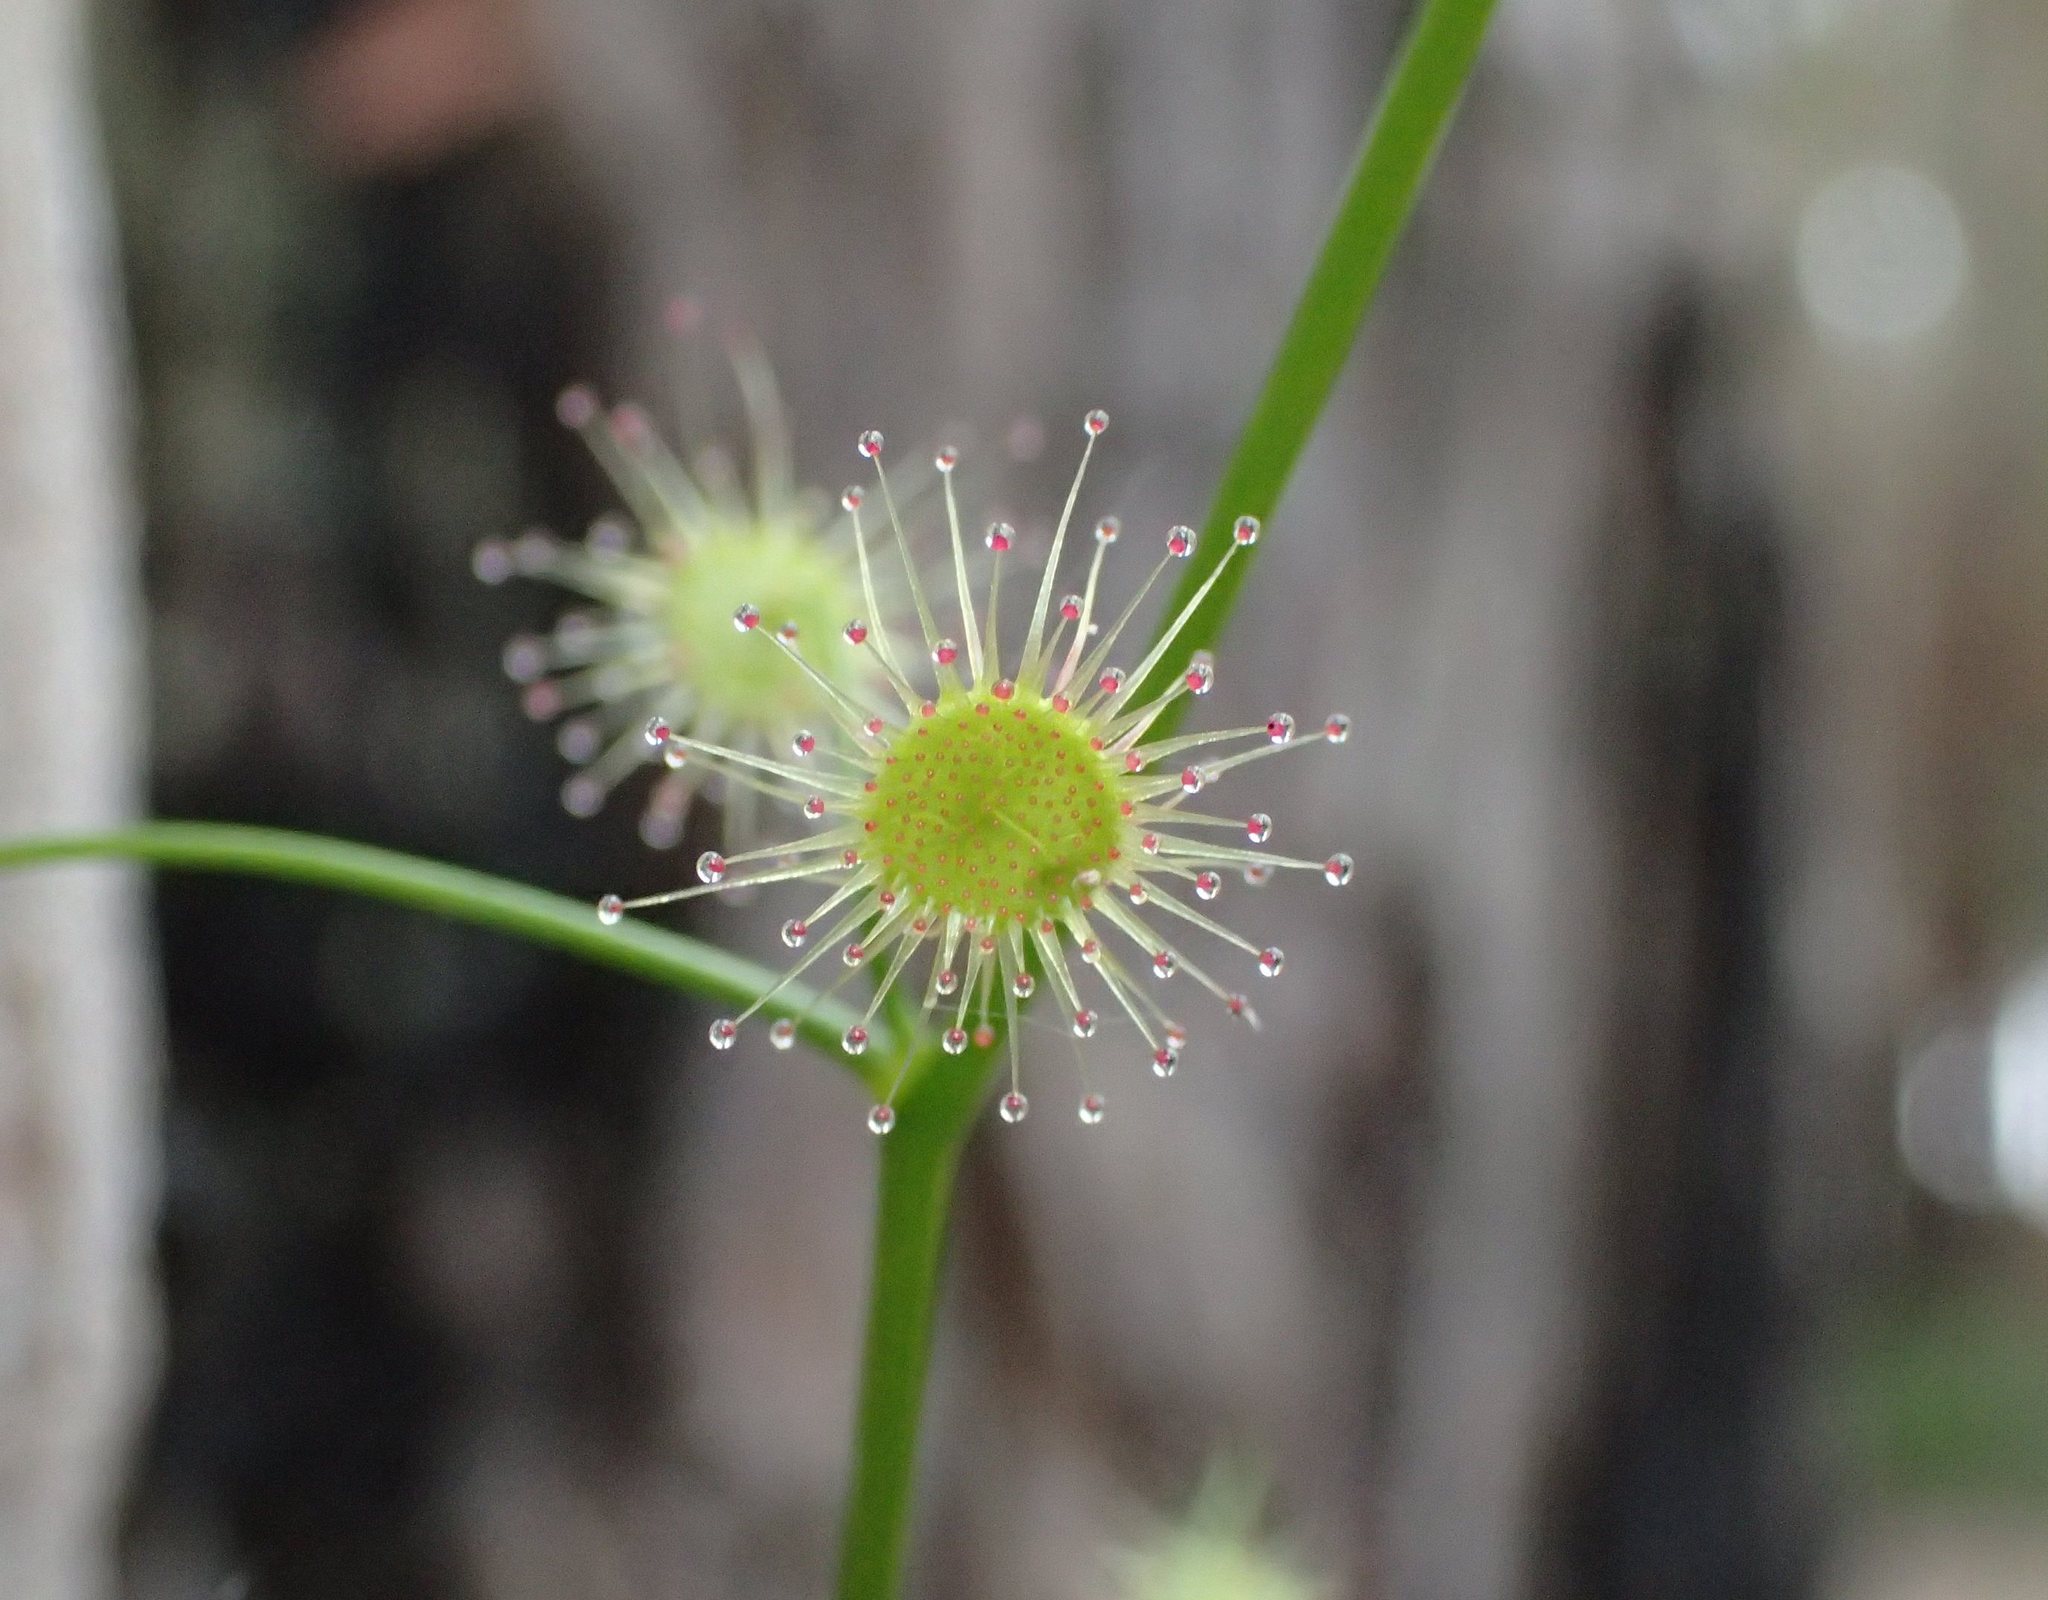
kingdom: Plantae
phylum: Tracheophyta
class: Magnoliopsida
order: Caryophyllales
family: Droseraceae
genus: Drosera
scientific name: Drosera pallida
